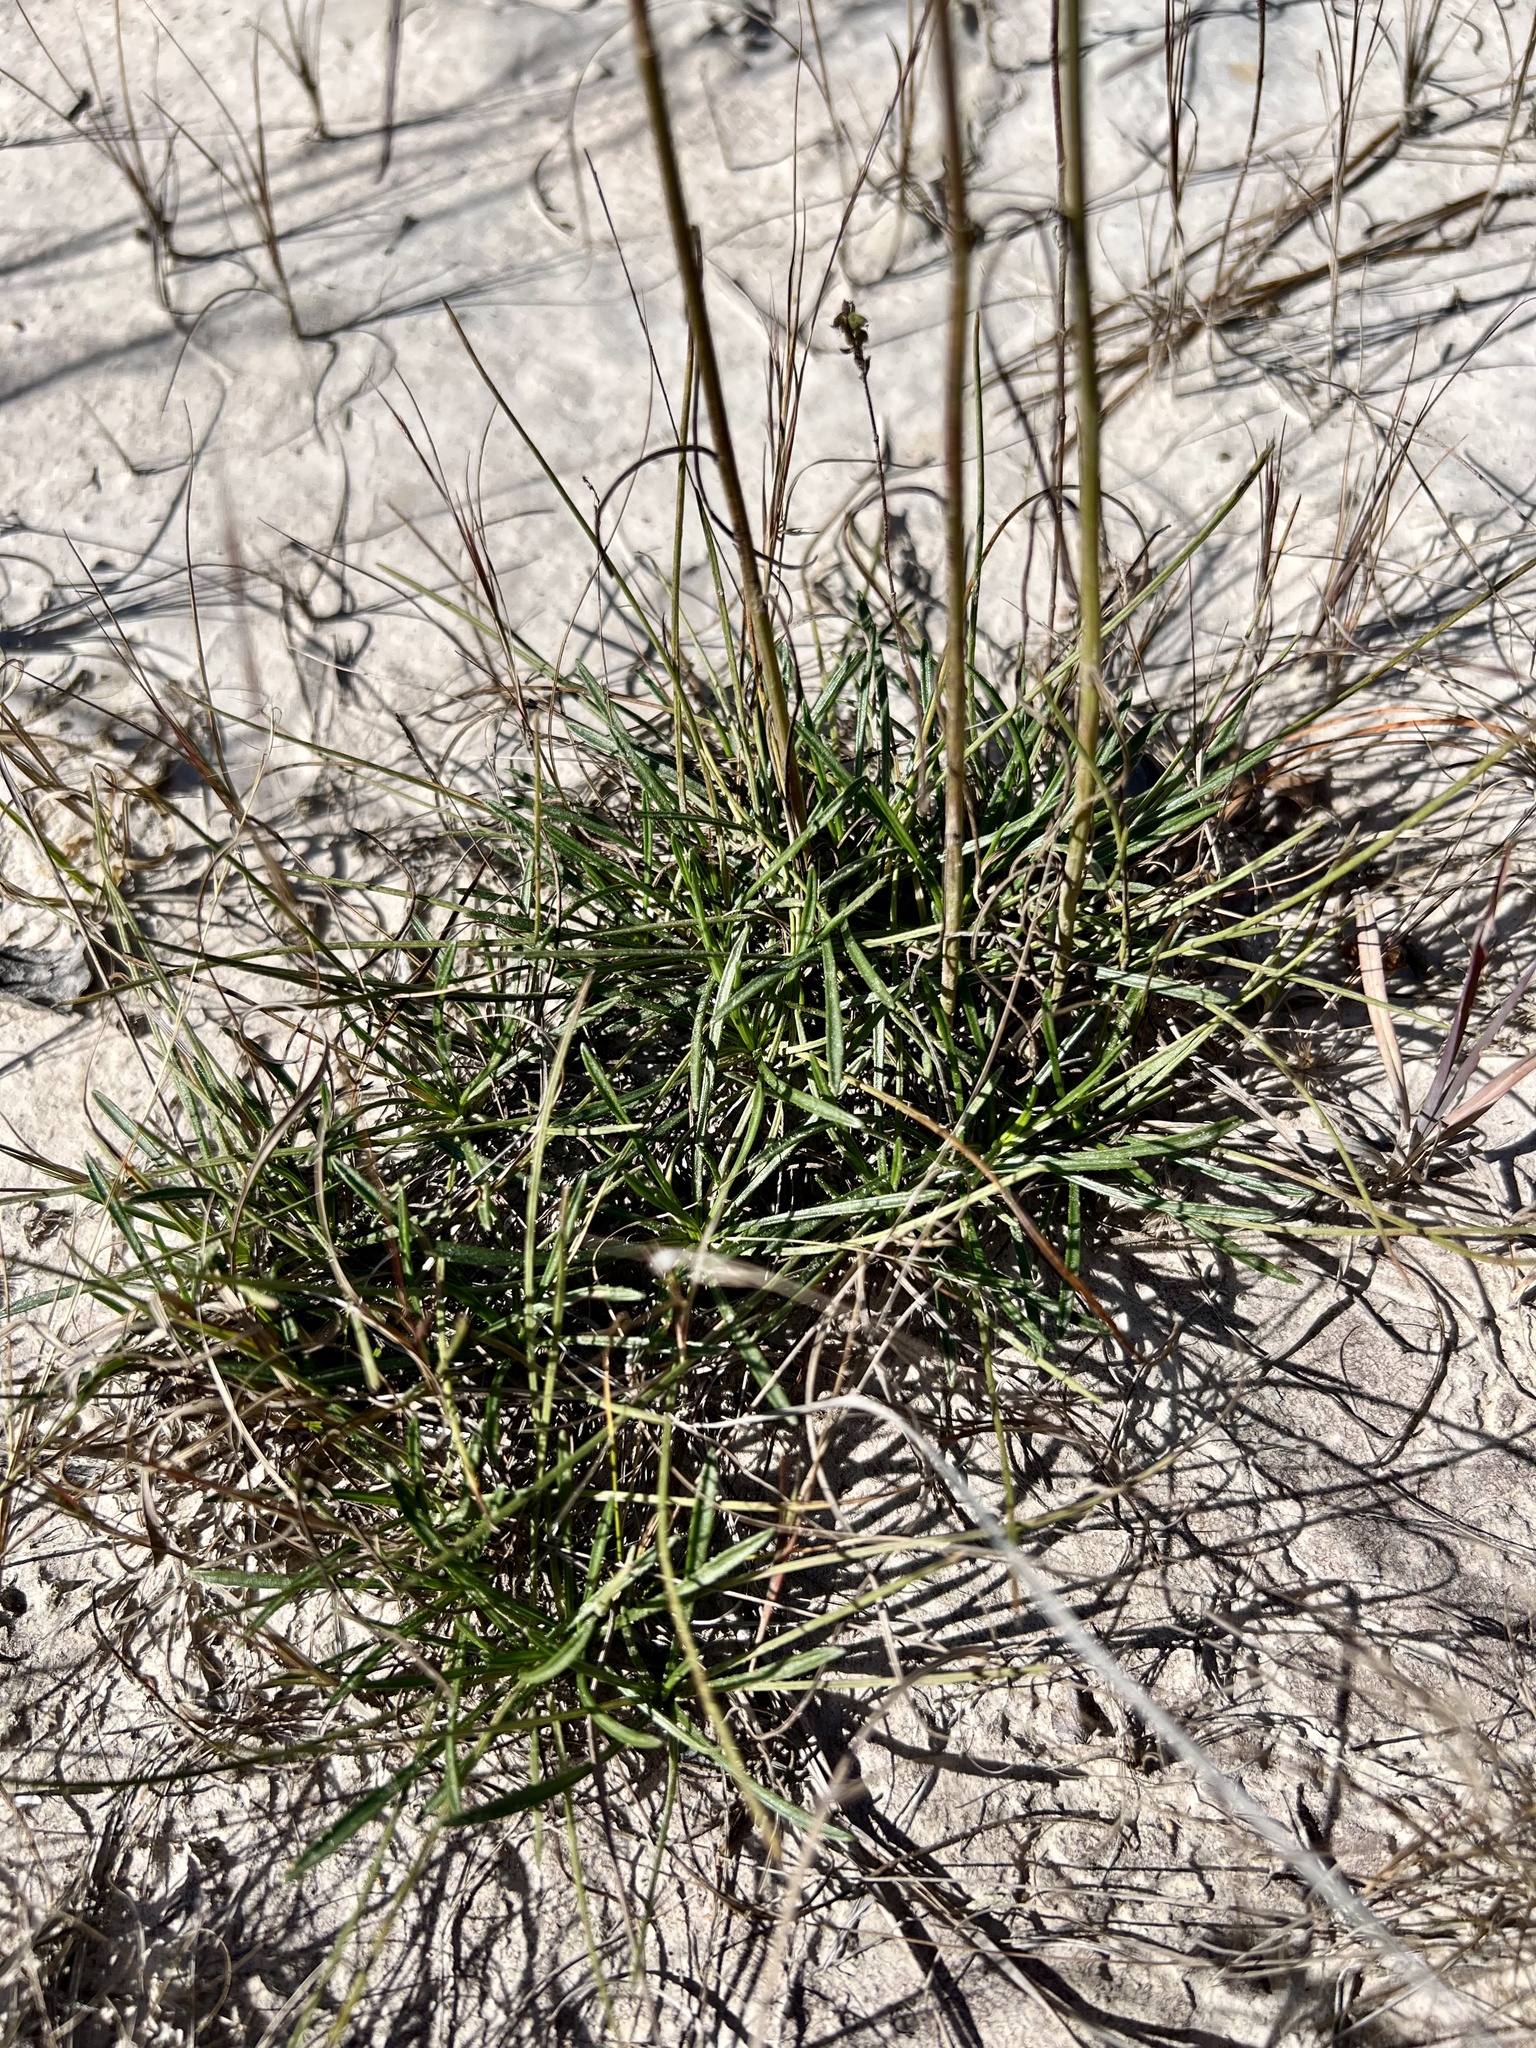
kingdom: Plantae
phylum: Tracheophyta
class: Magnoliopsida
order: Asterales
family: Asteraceae
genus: Bigelowia
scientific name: Bigelowia nuttallii
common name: Nuttall's rayless-goldenrod
